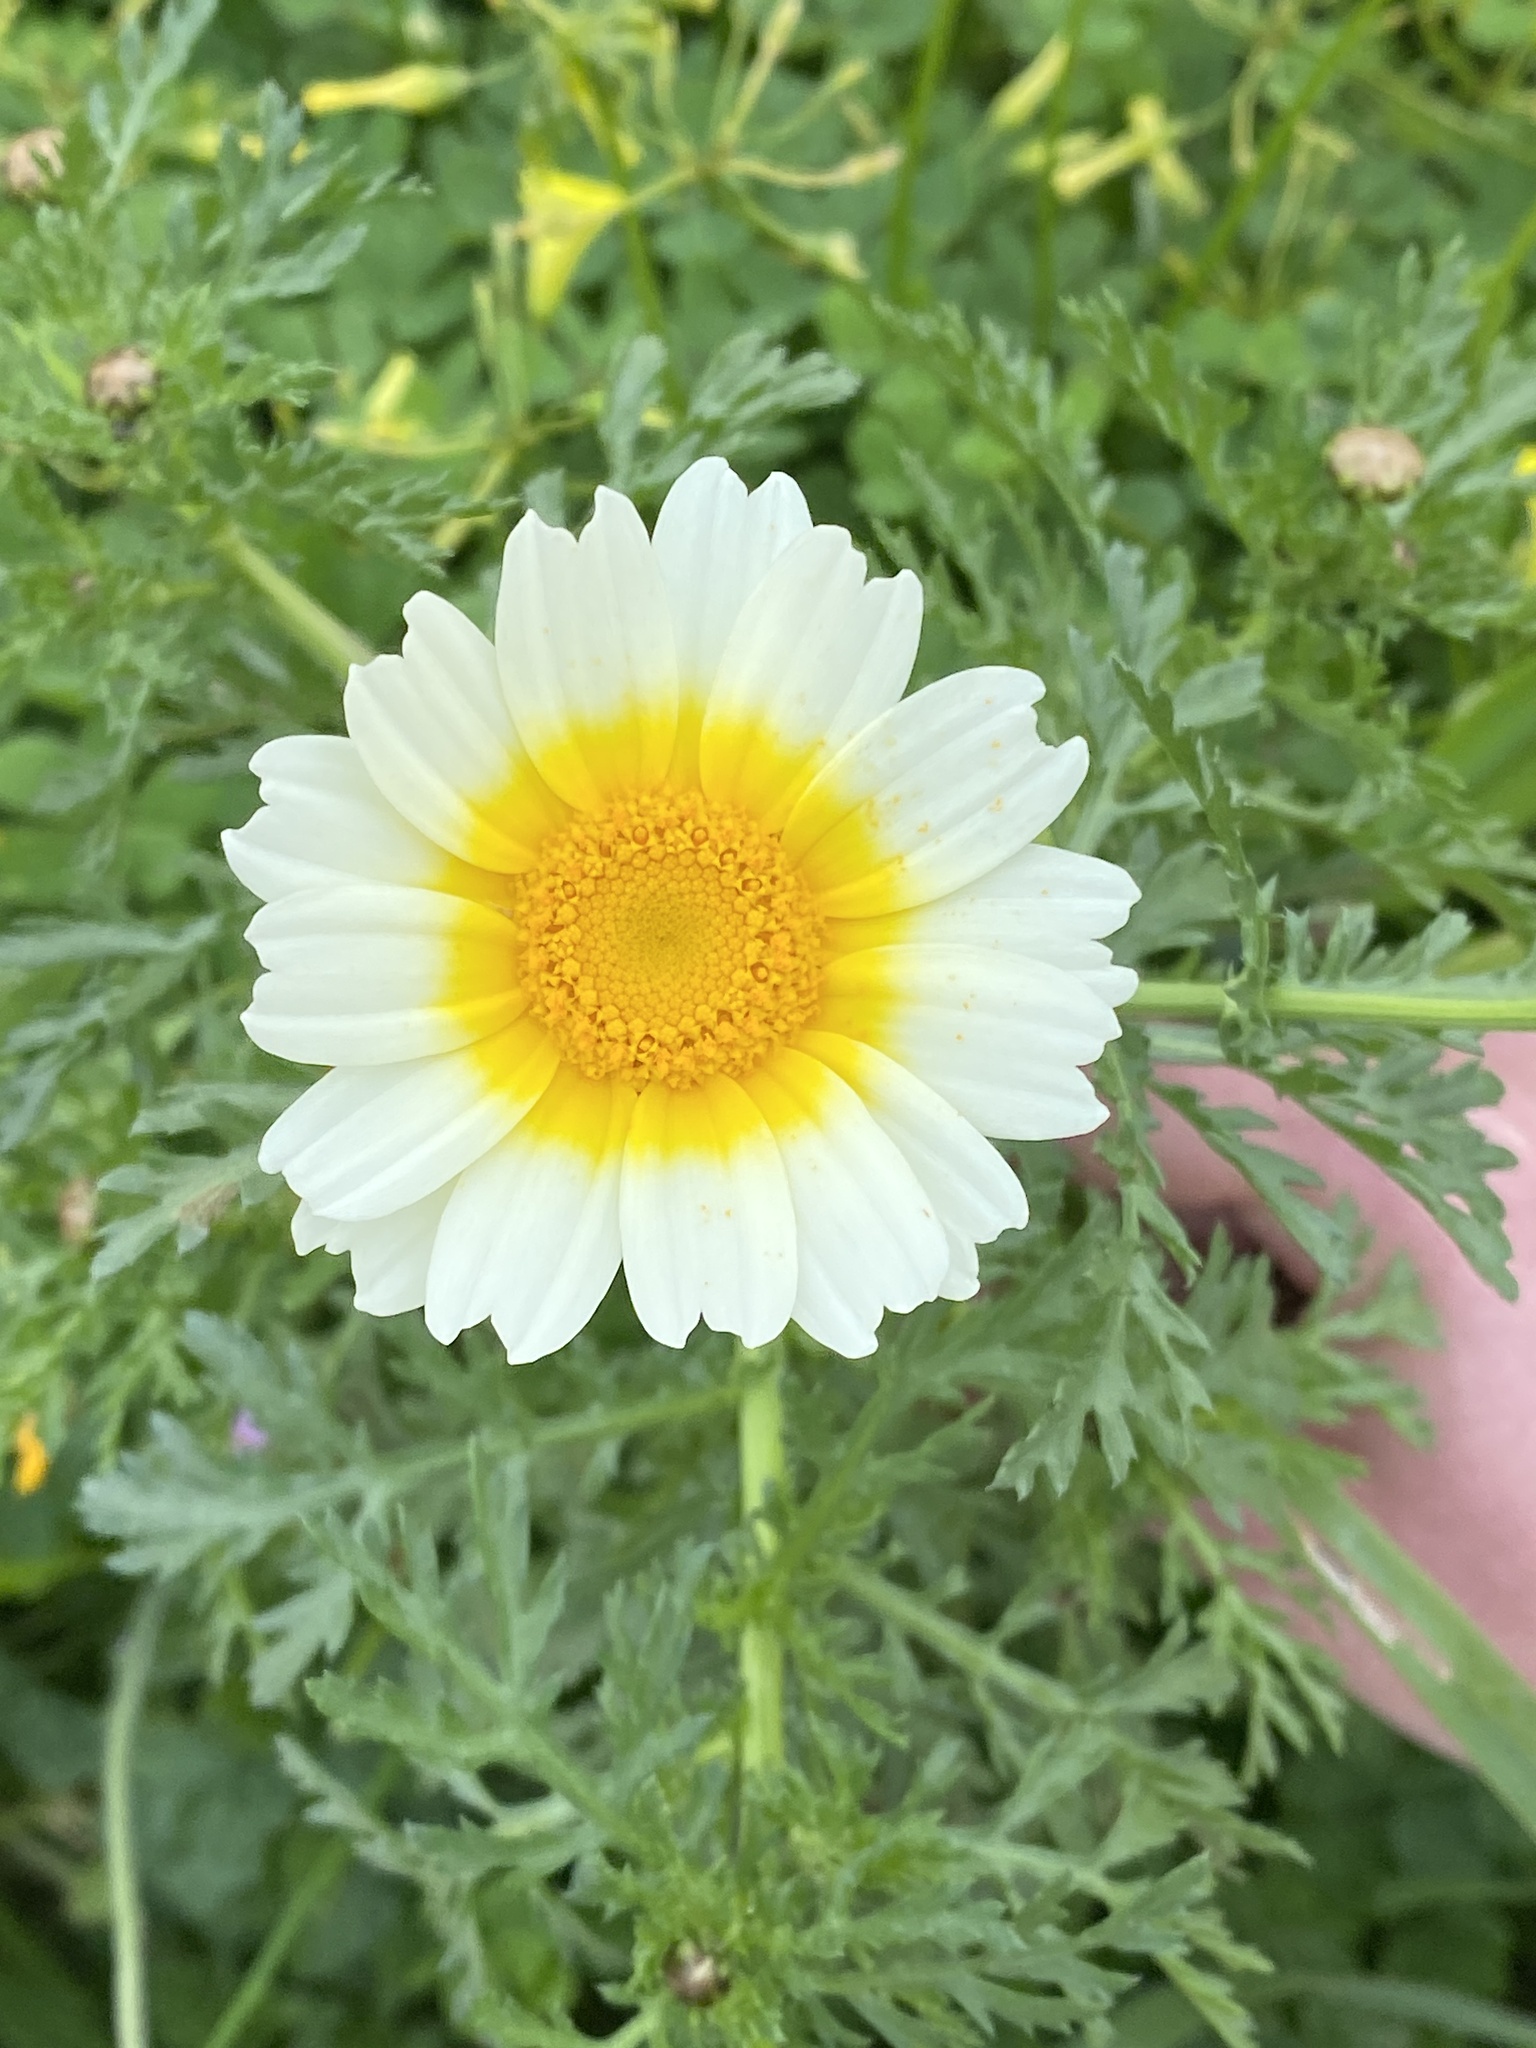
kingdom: Plantae
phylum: Tracheophyta
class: Magnoliopsida
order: Asterales
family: Asteraceae
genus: Glebionis
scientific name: Glebionis coronaria
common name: Crowndaisy
